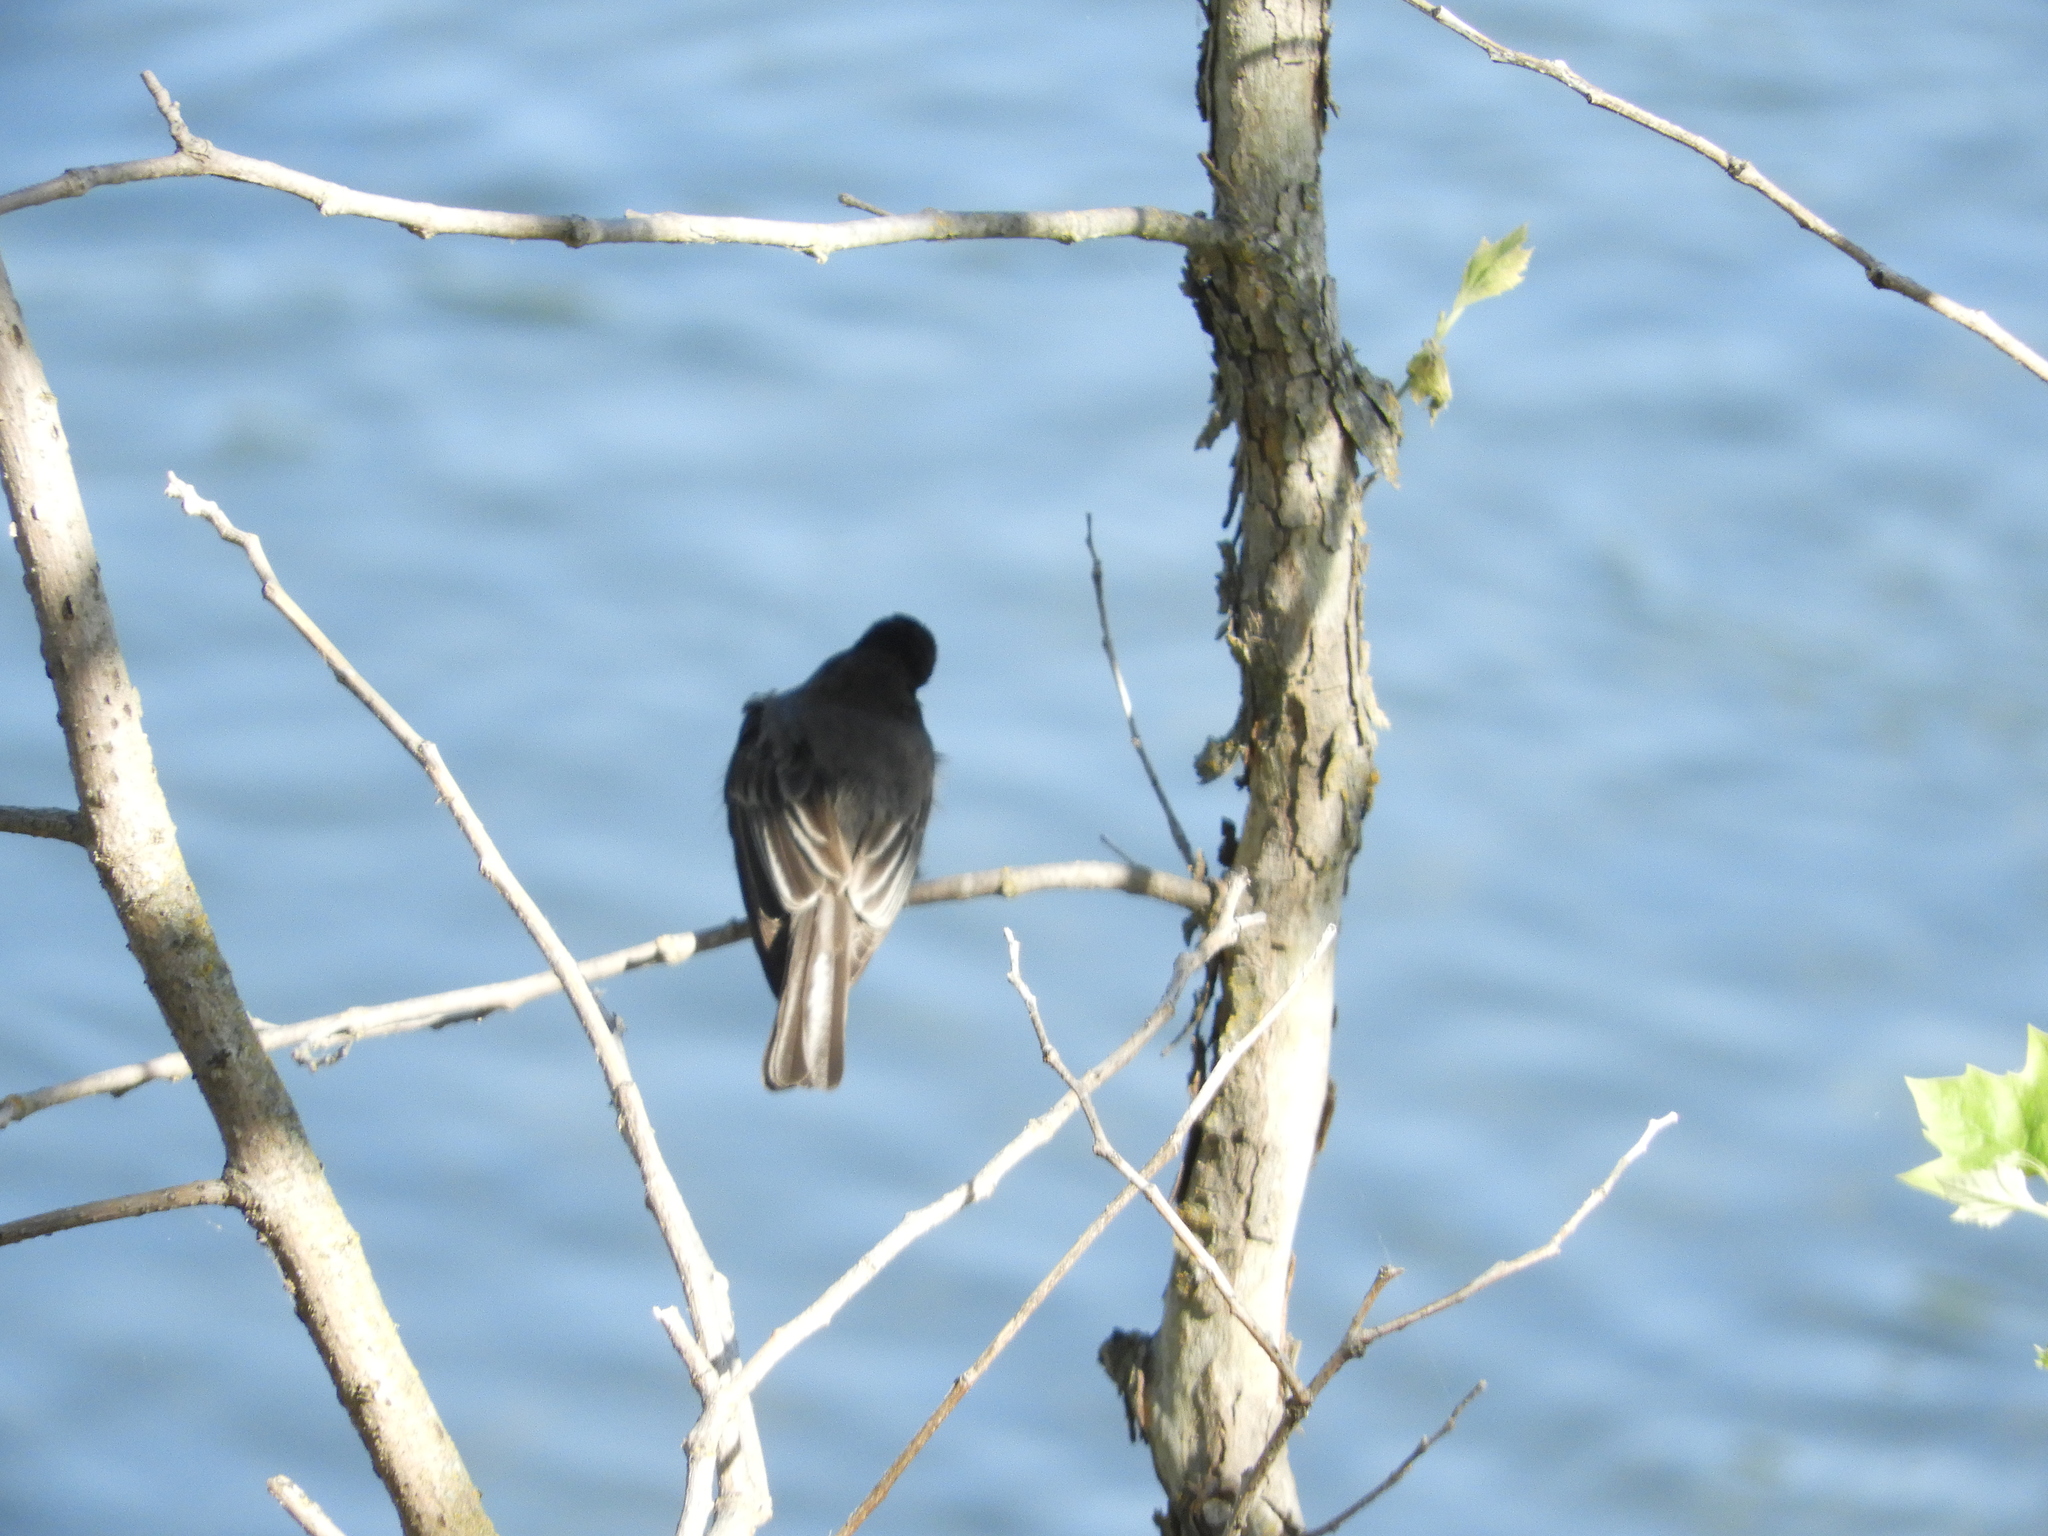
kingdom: Animalia
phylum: Chordata
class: Aves
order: Passeriformes
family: Tyrannidae
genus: Sayornis
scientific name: Sayornis nigricans
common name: Black phoebe
